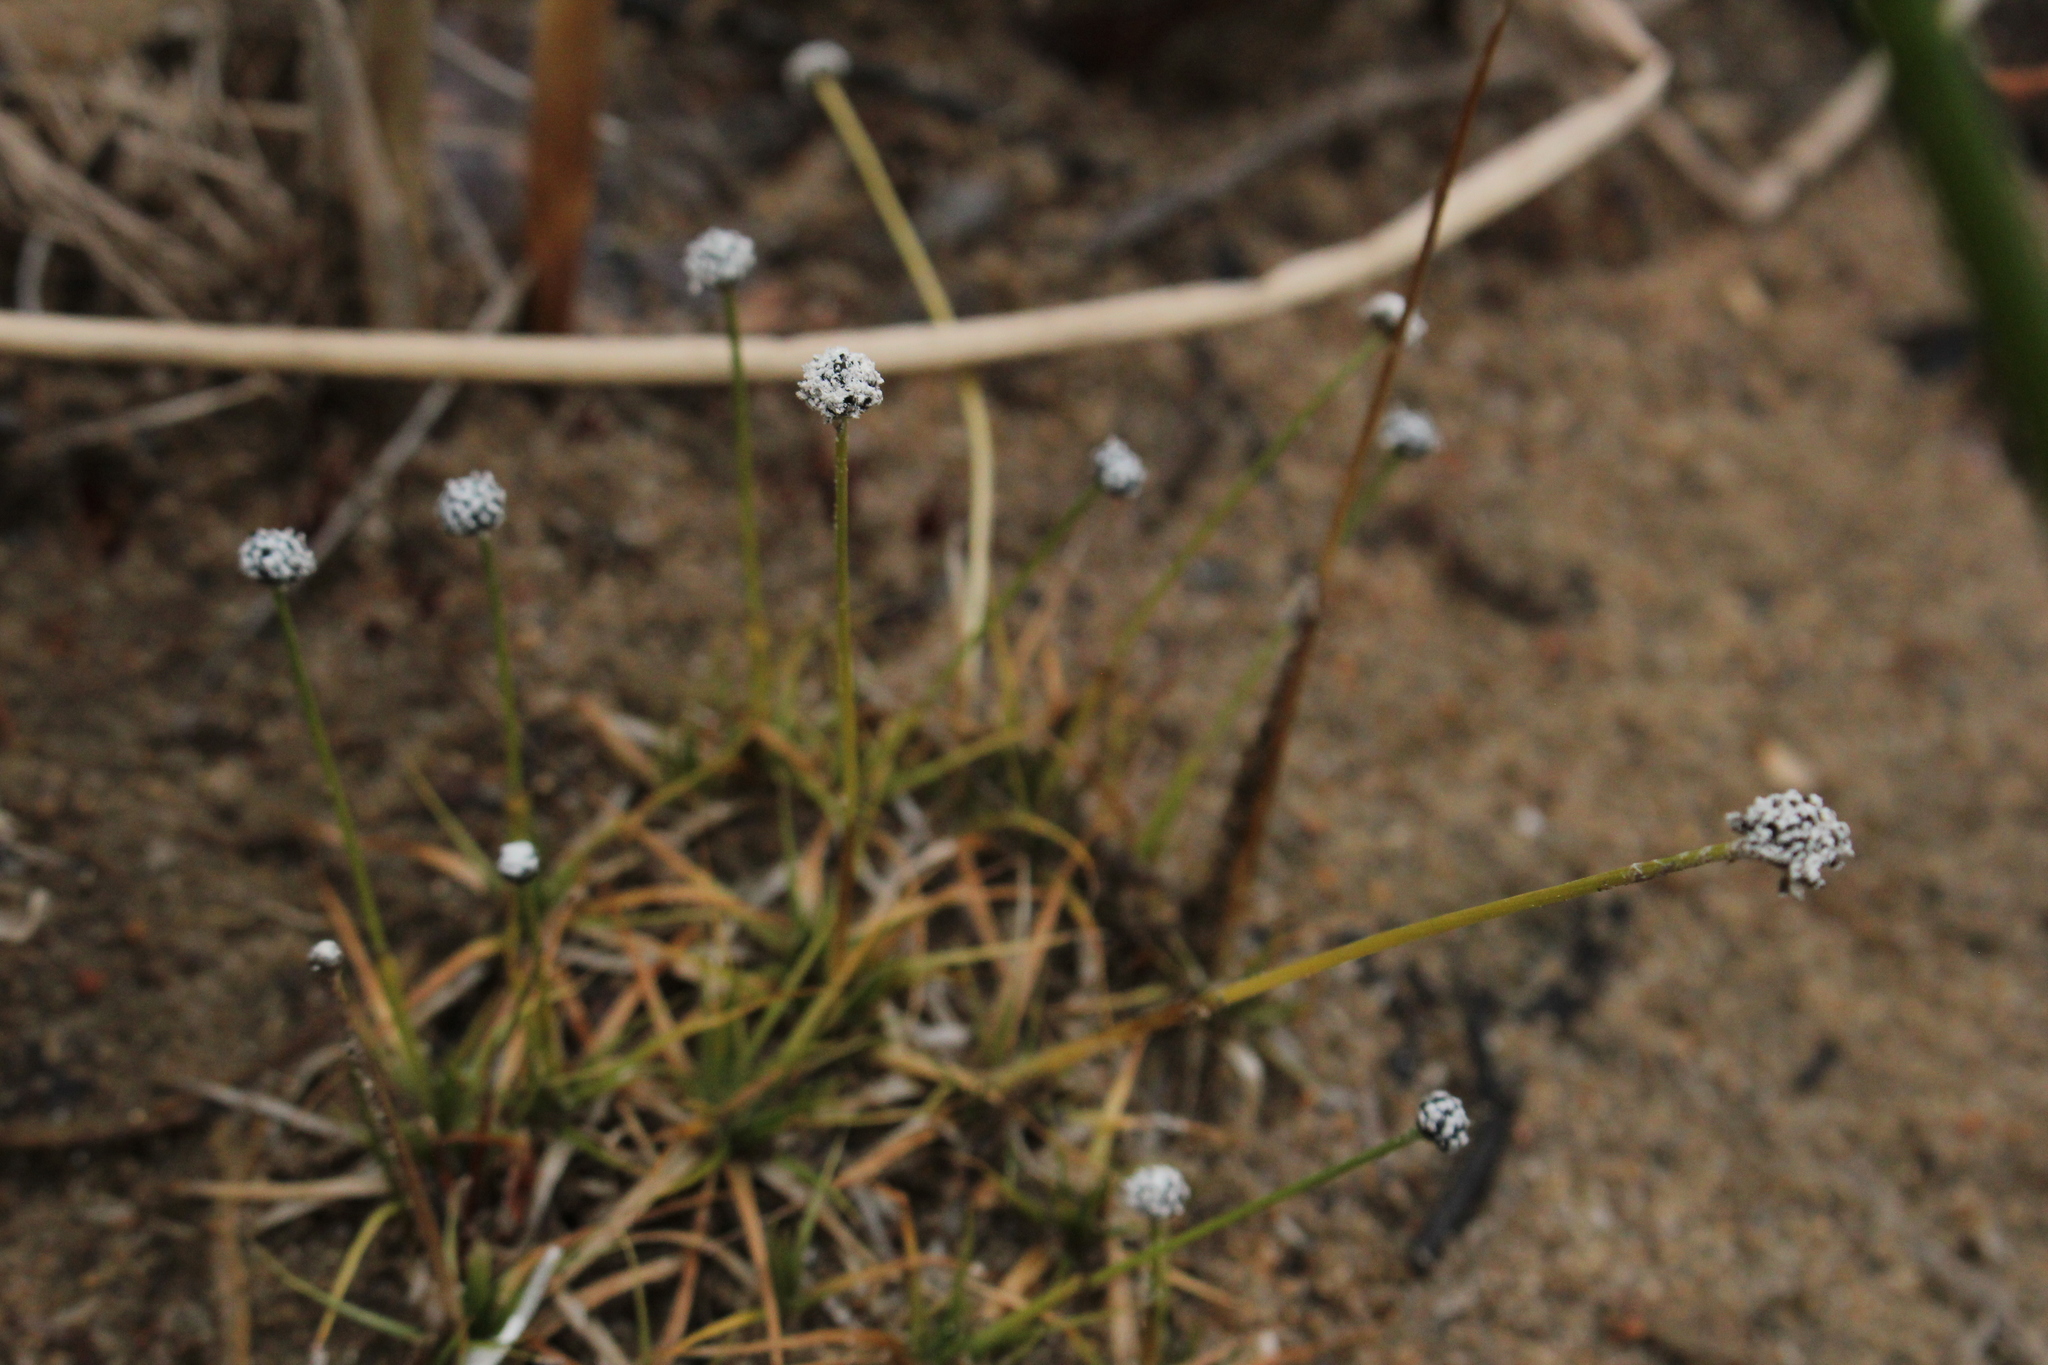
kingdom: Plantae
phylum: Tracheophyta
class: Liliopsida
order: Poales
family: Eriocaulaceae
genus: Eriocaulon
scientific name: Eriocaulon aquaticum
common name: Pipewort
